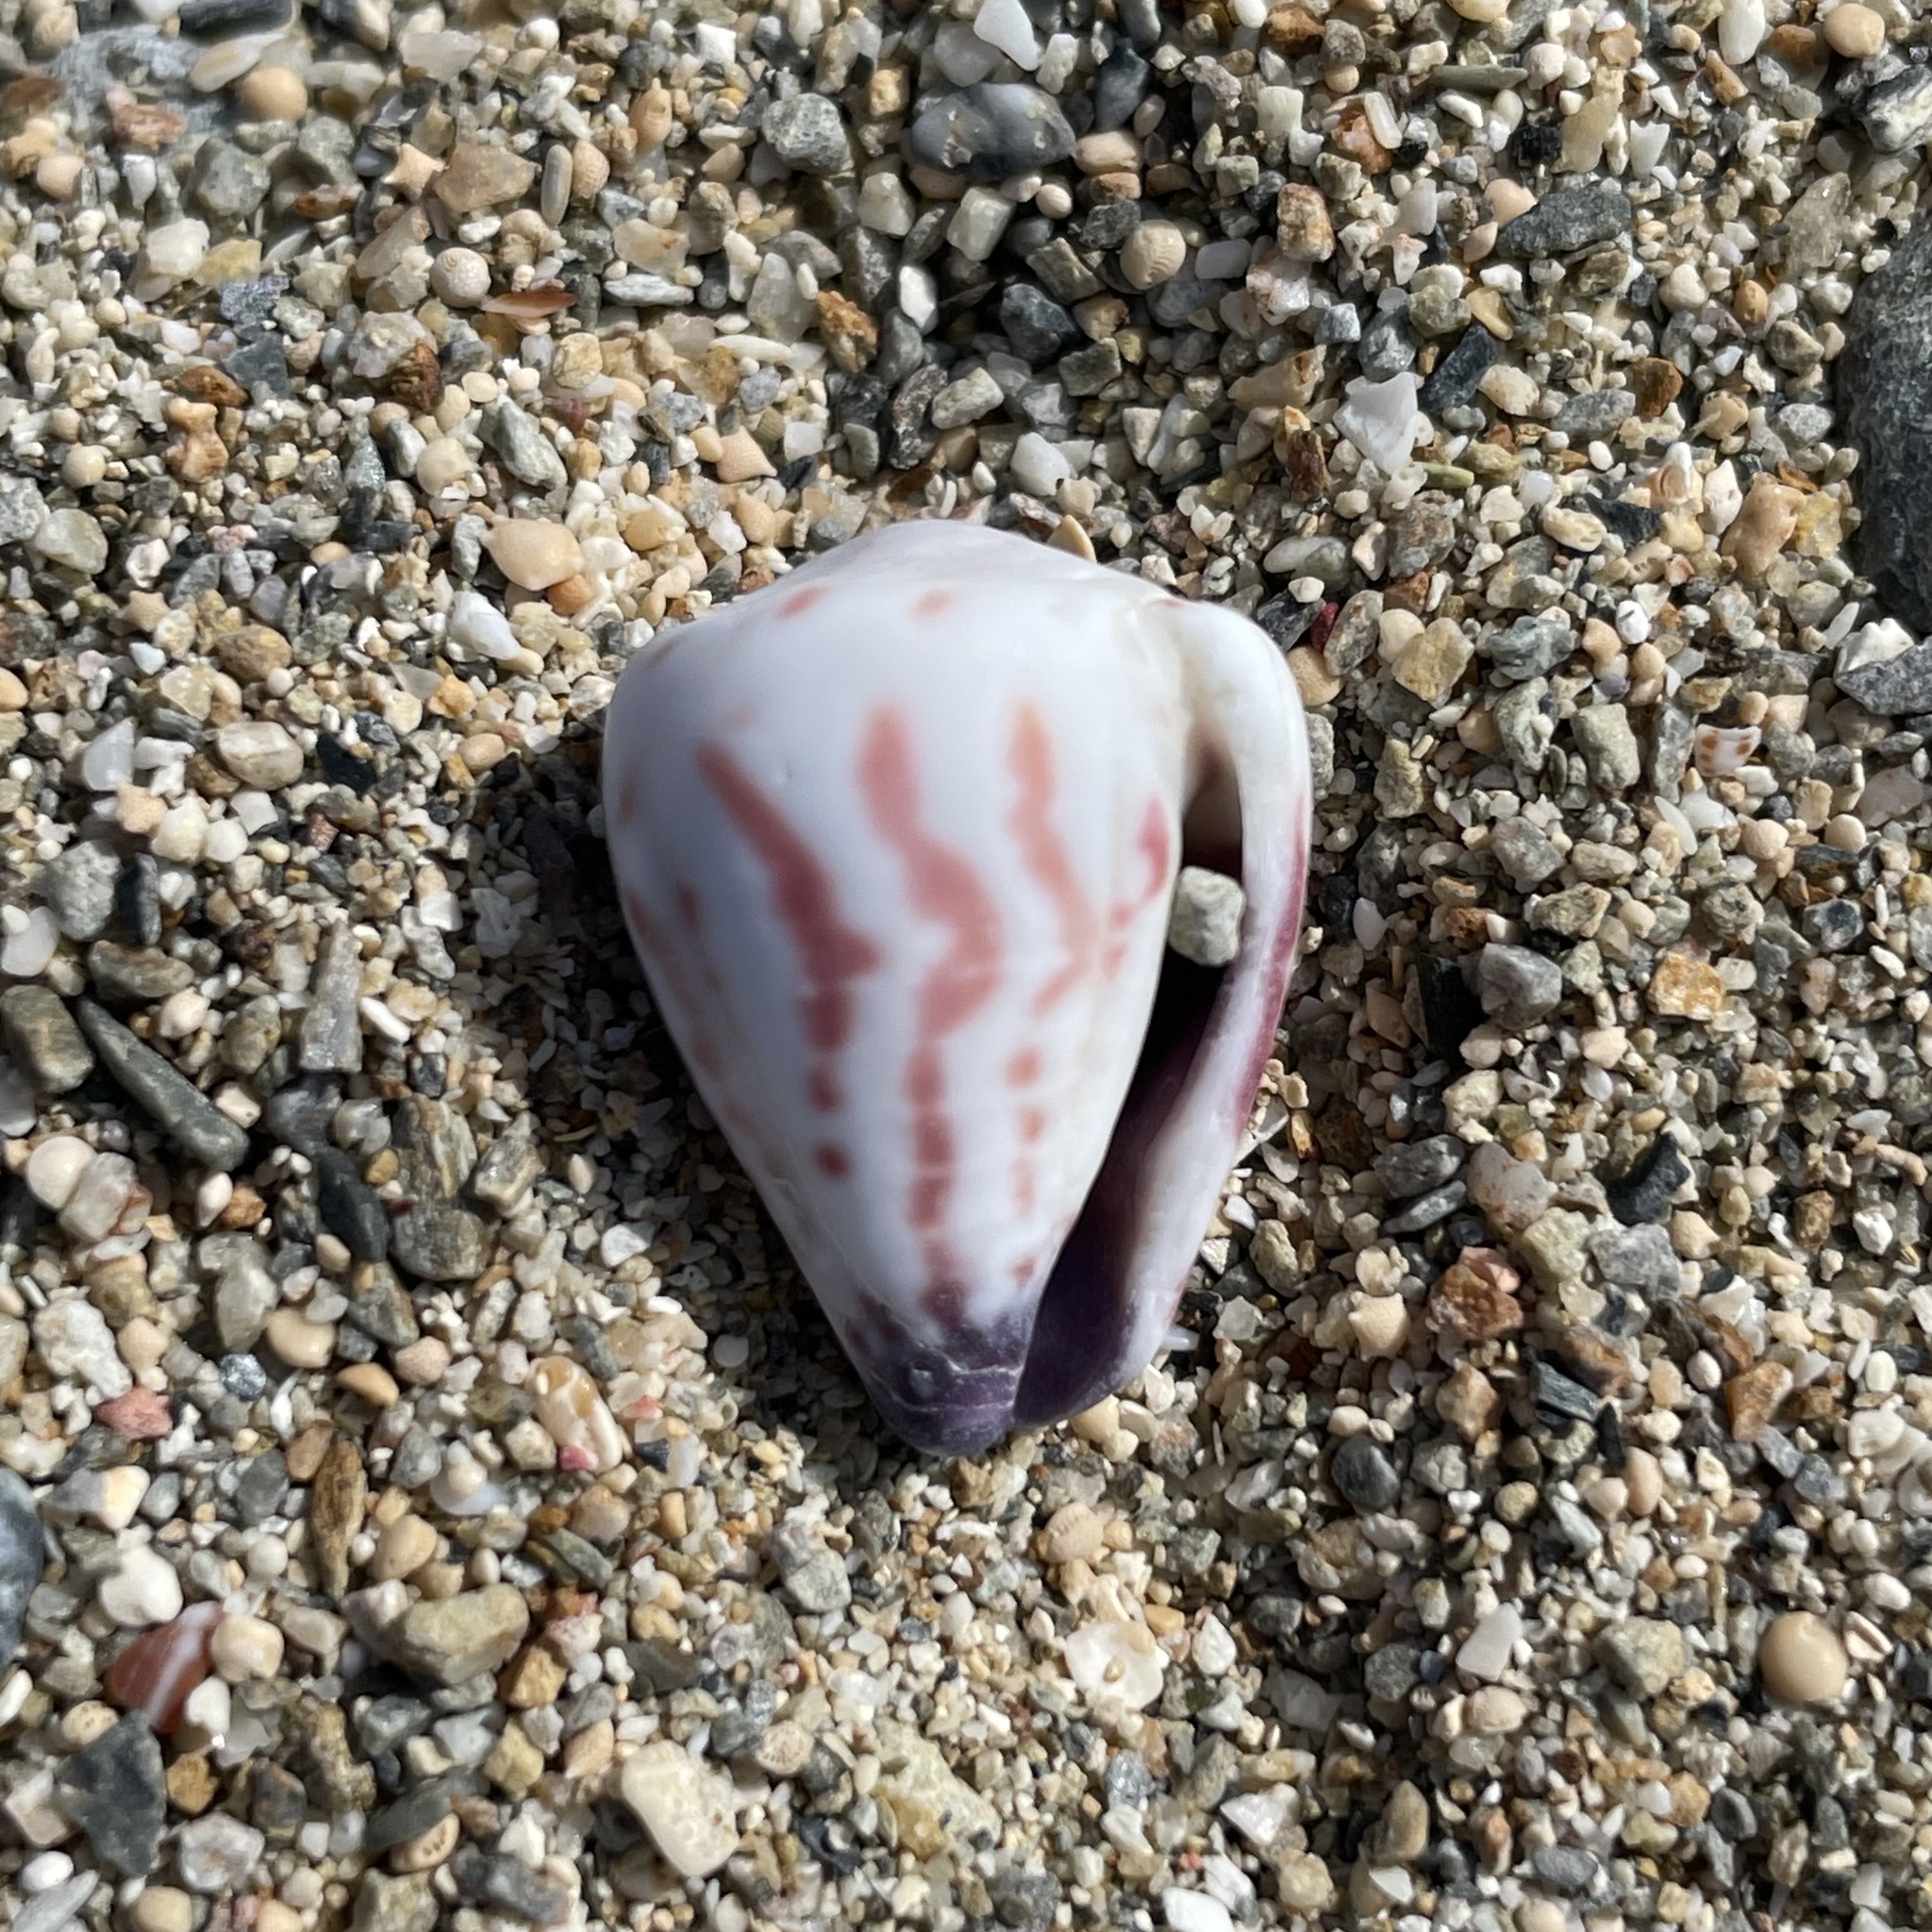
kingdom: Animalia
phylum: Mollusca
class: Gastropoda
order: Neogastropoda
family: Conidae
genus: Conus
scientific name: Conus sponsalis
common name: Sponsal cone
